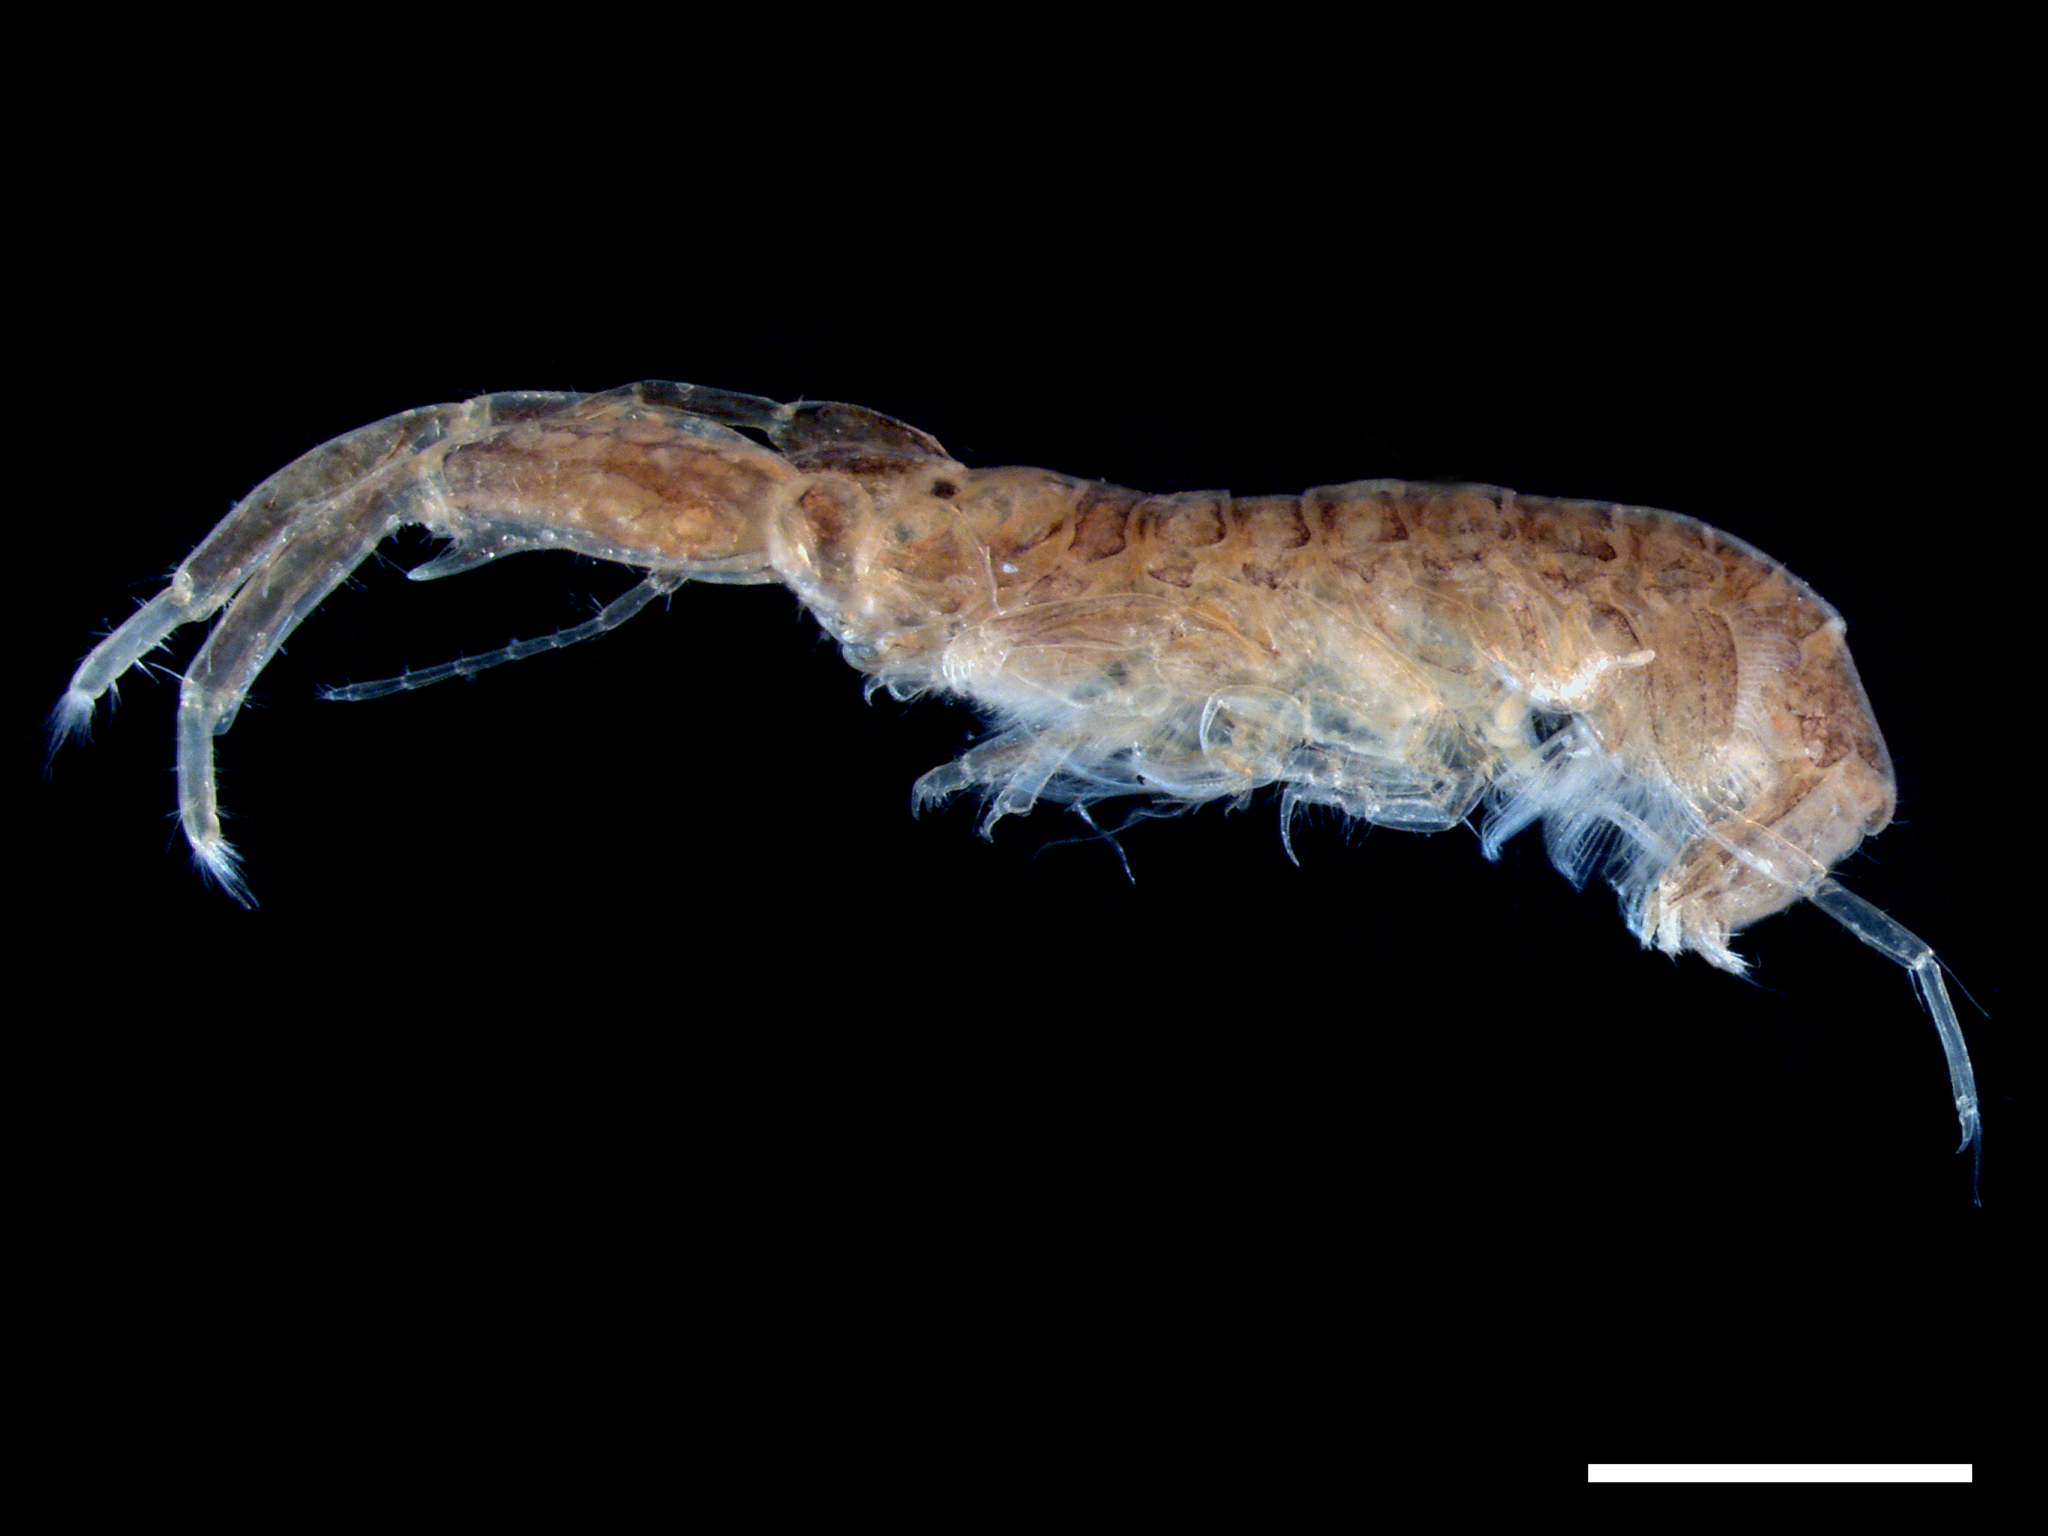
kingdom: Animalia
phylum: Arthropoda
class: Malacostraca
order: Amphipoda
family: Corophiidae
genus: Apocorophium
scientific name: Apocorophium louisianum
